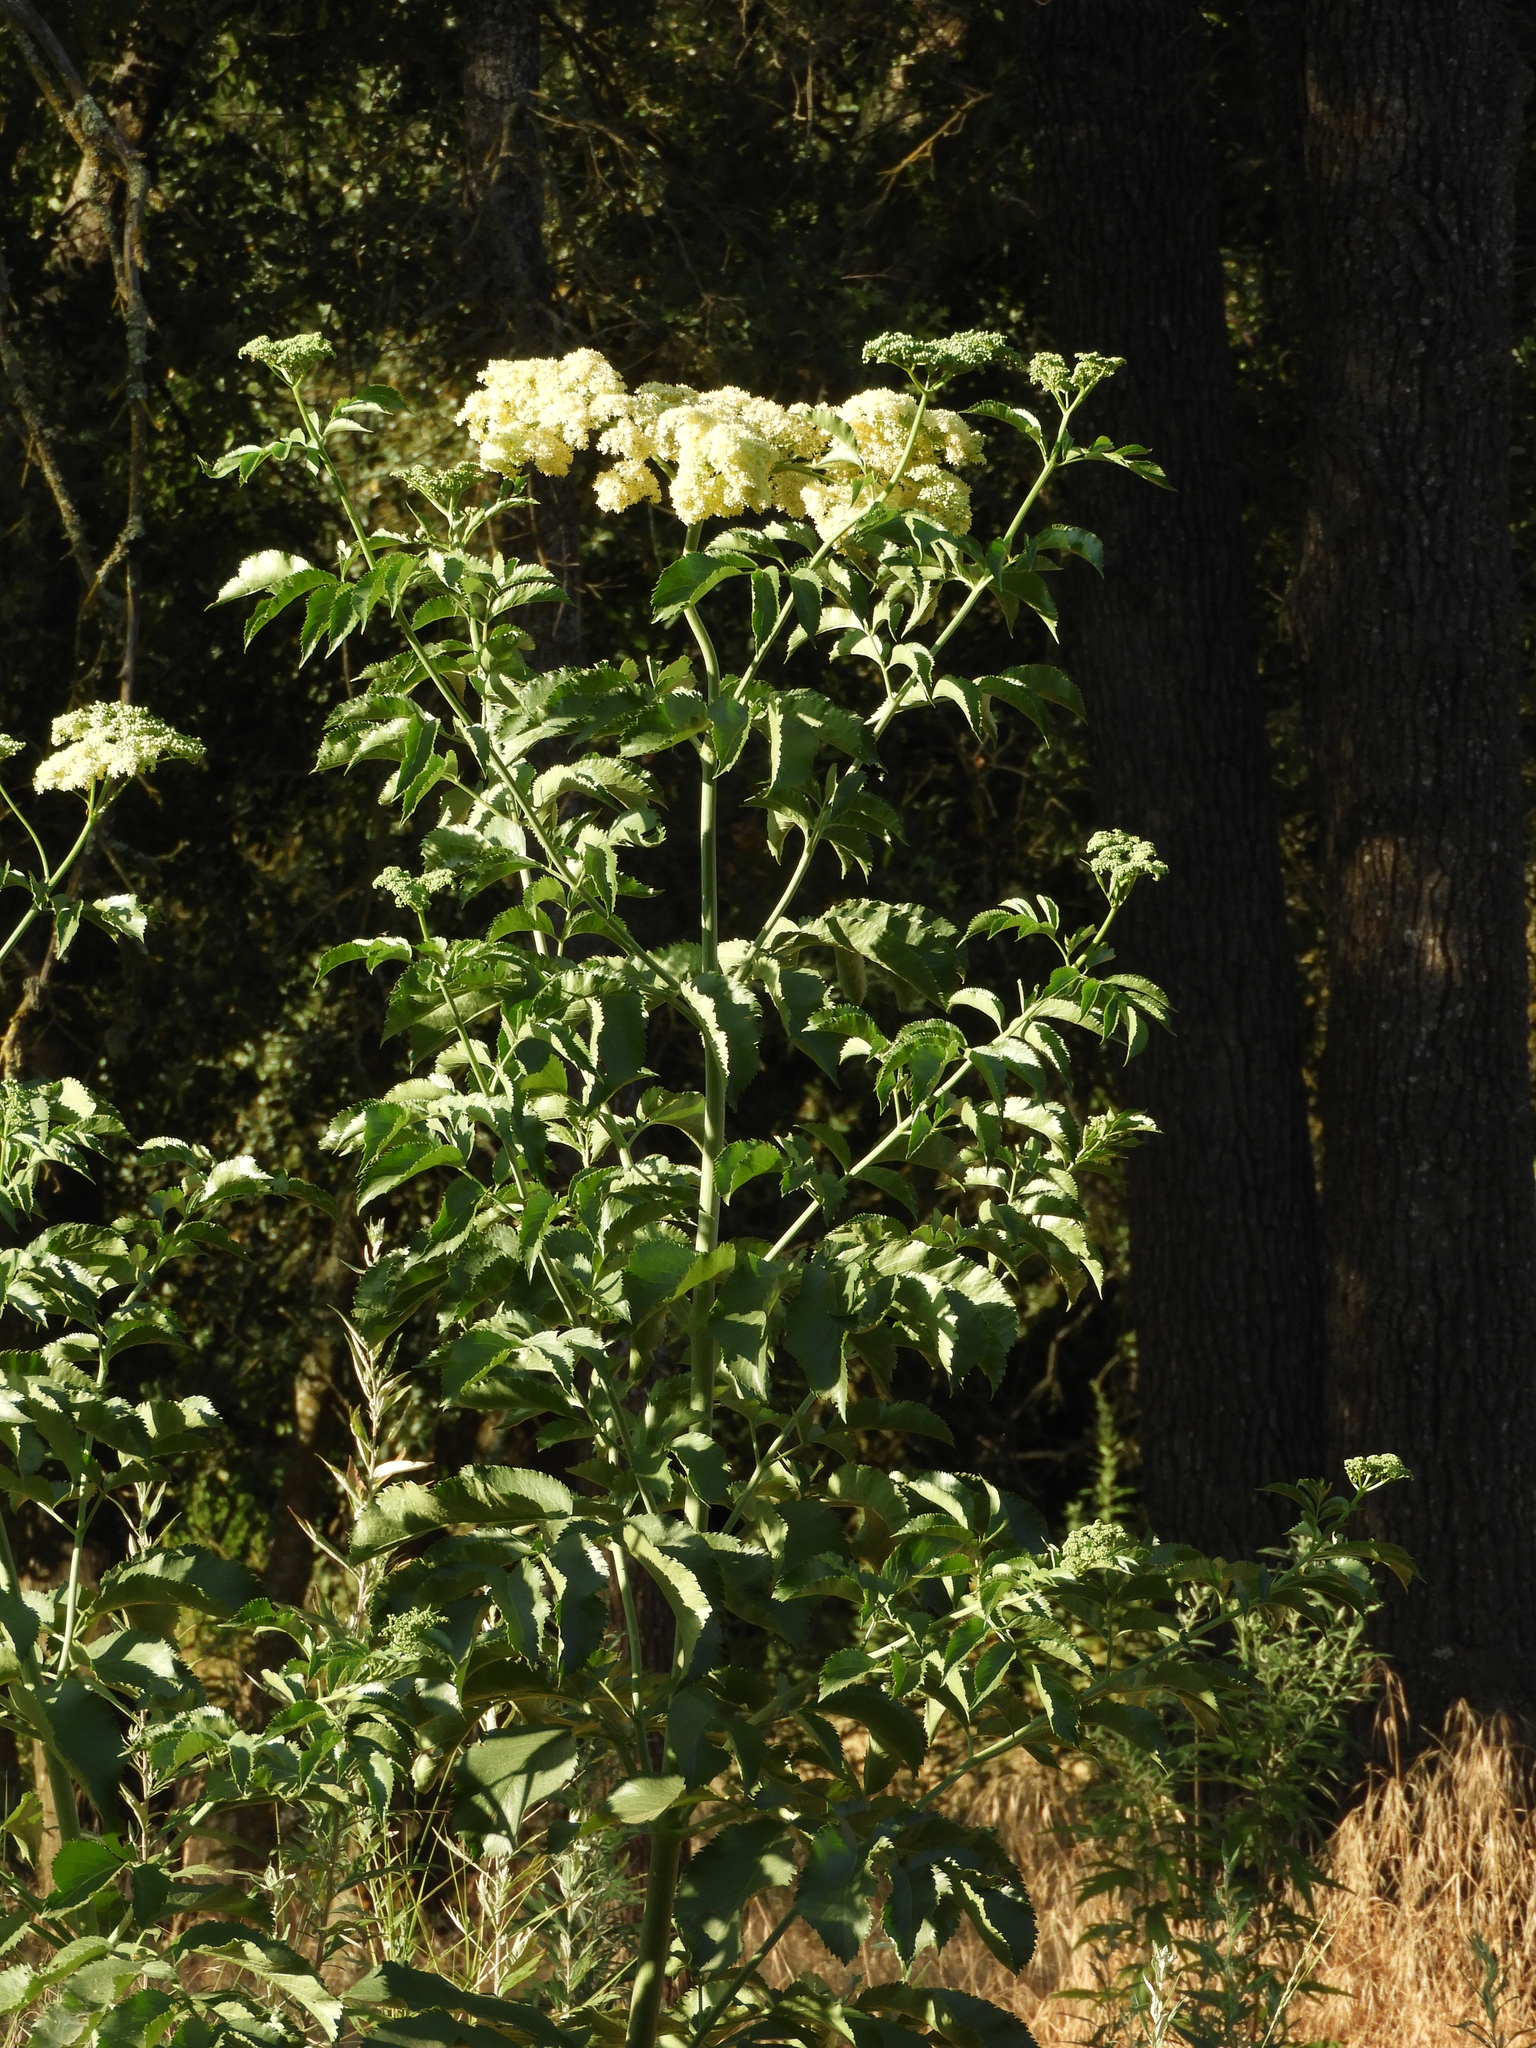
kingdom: Plantae
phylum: Tracheophyta
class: Magnoliopsida
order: Dipsacales
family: Viburnaceae
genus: Sambucus
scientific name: Sambucus cerulea
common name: Blue elder
